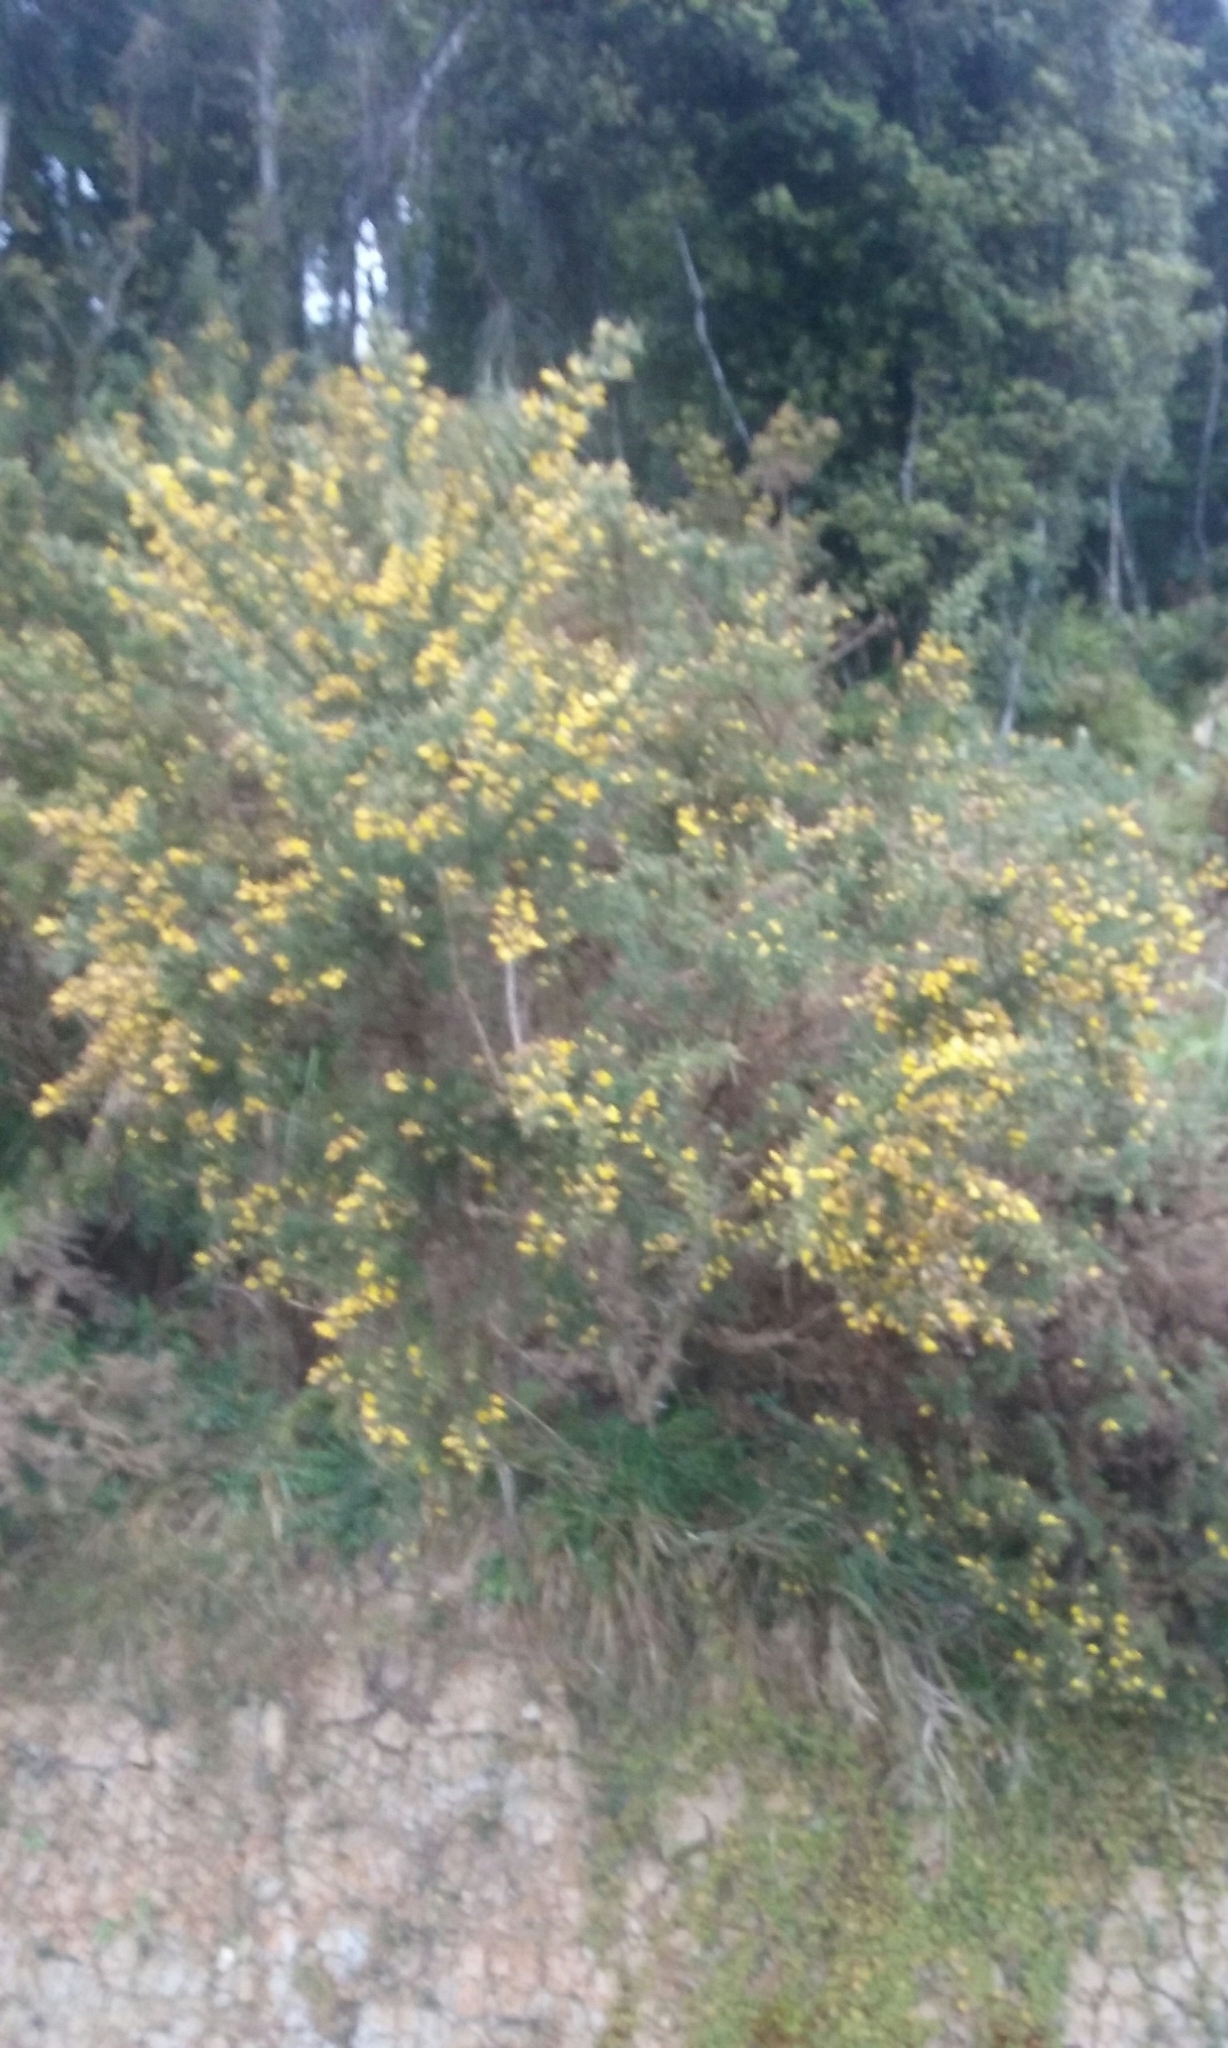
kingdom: Plantae
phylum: Tracheophyta
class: Magnoliopsida
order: Fabales
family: Fabaceae
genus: Ulex
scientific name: Ulex europaeus
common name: Common gorse
